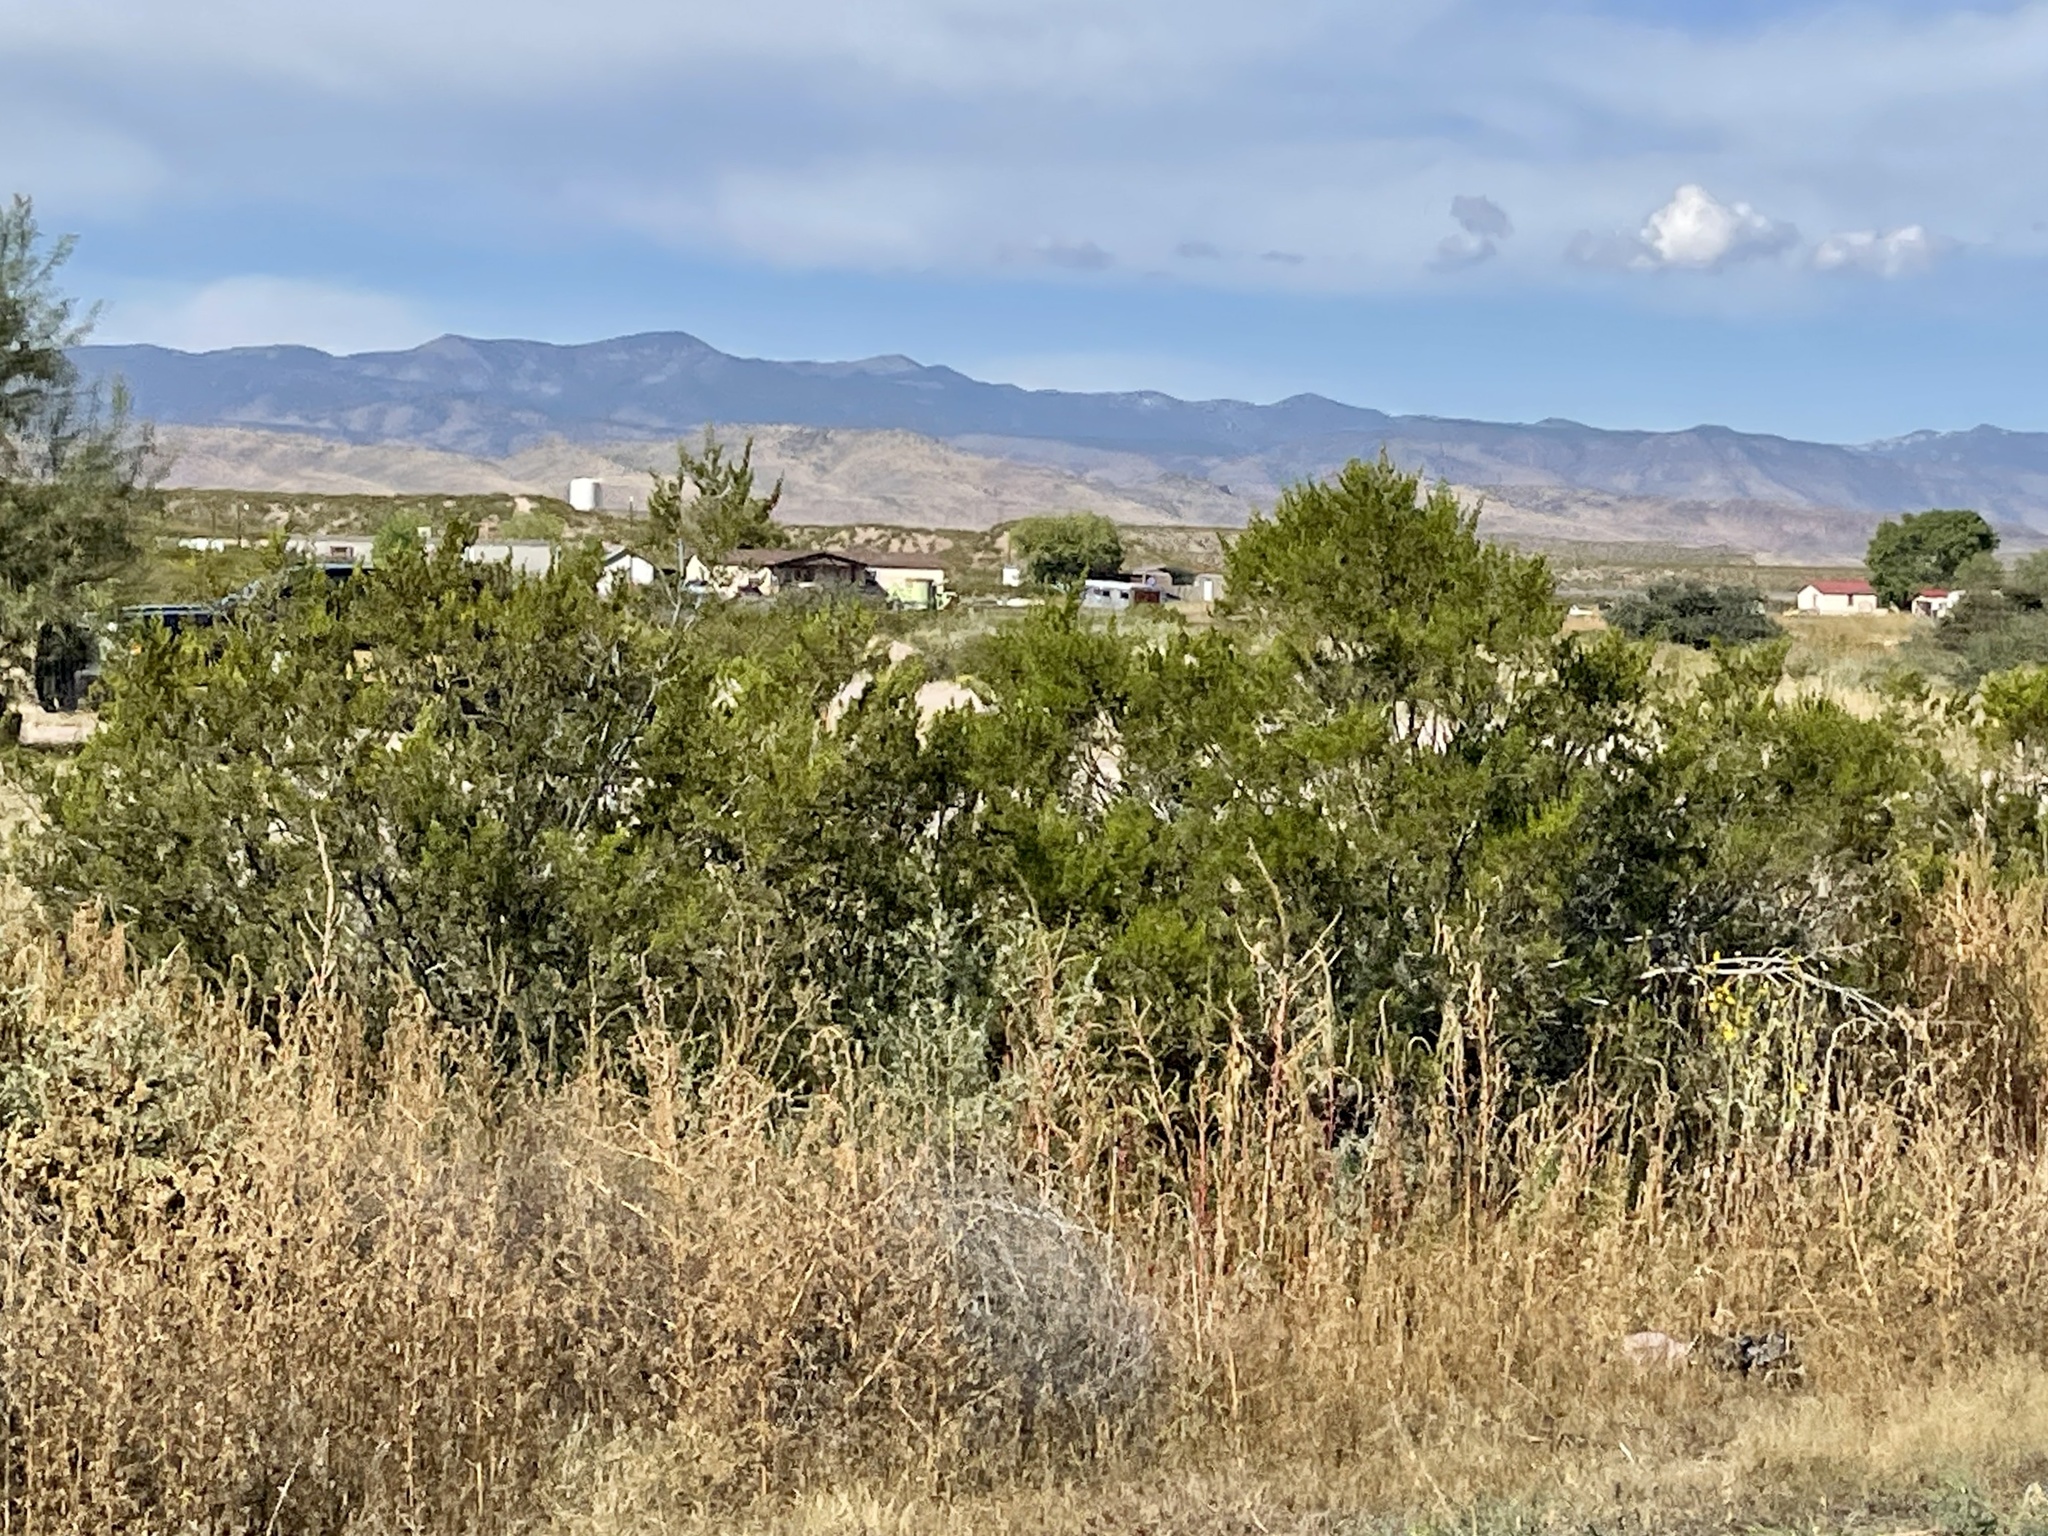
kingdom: Plantae
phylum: Tracheophyta
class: Magnoliopsida
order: Zygophyllales
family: Zygophyllaceae
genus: Larrea
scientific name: Larrea tridentata
